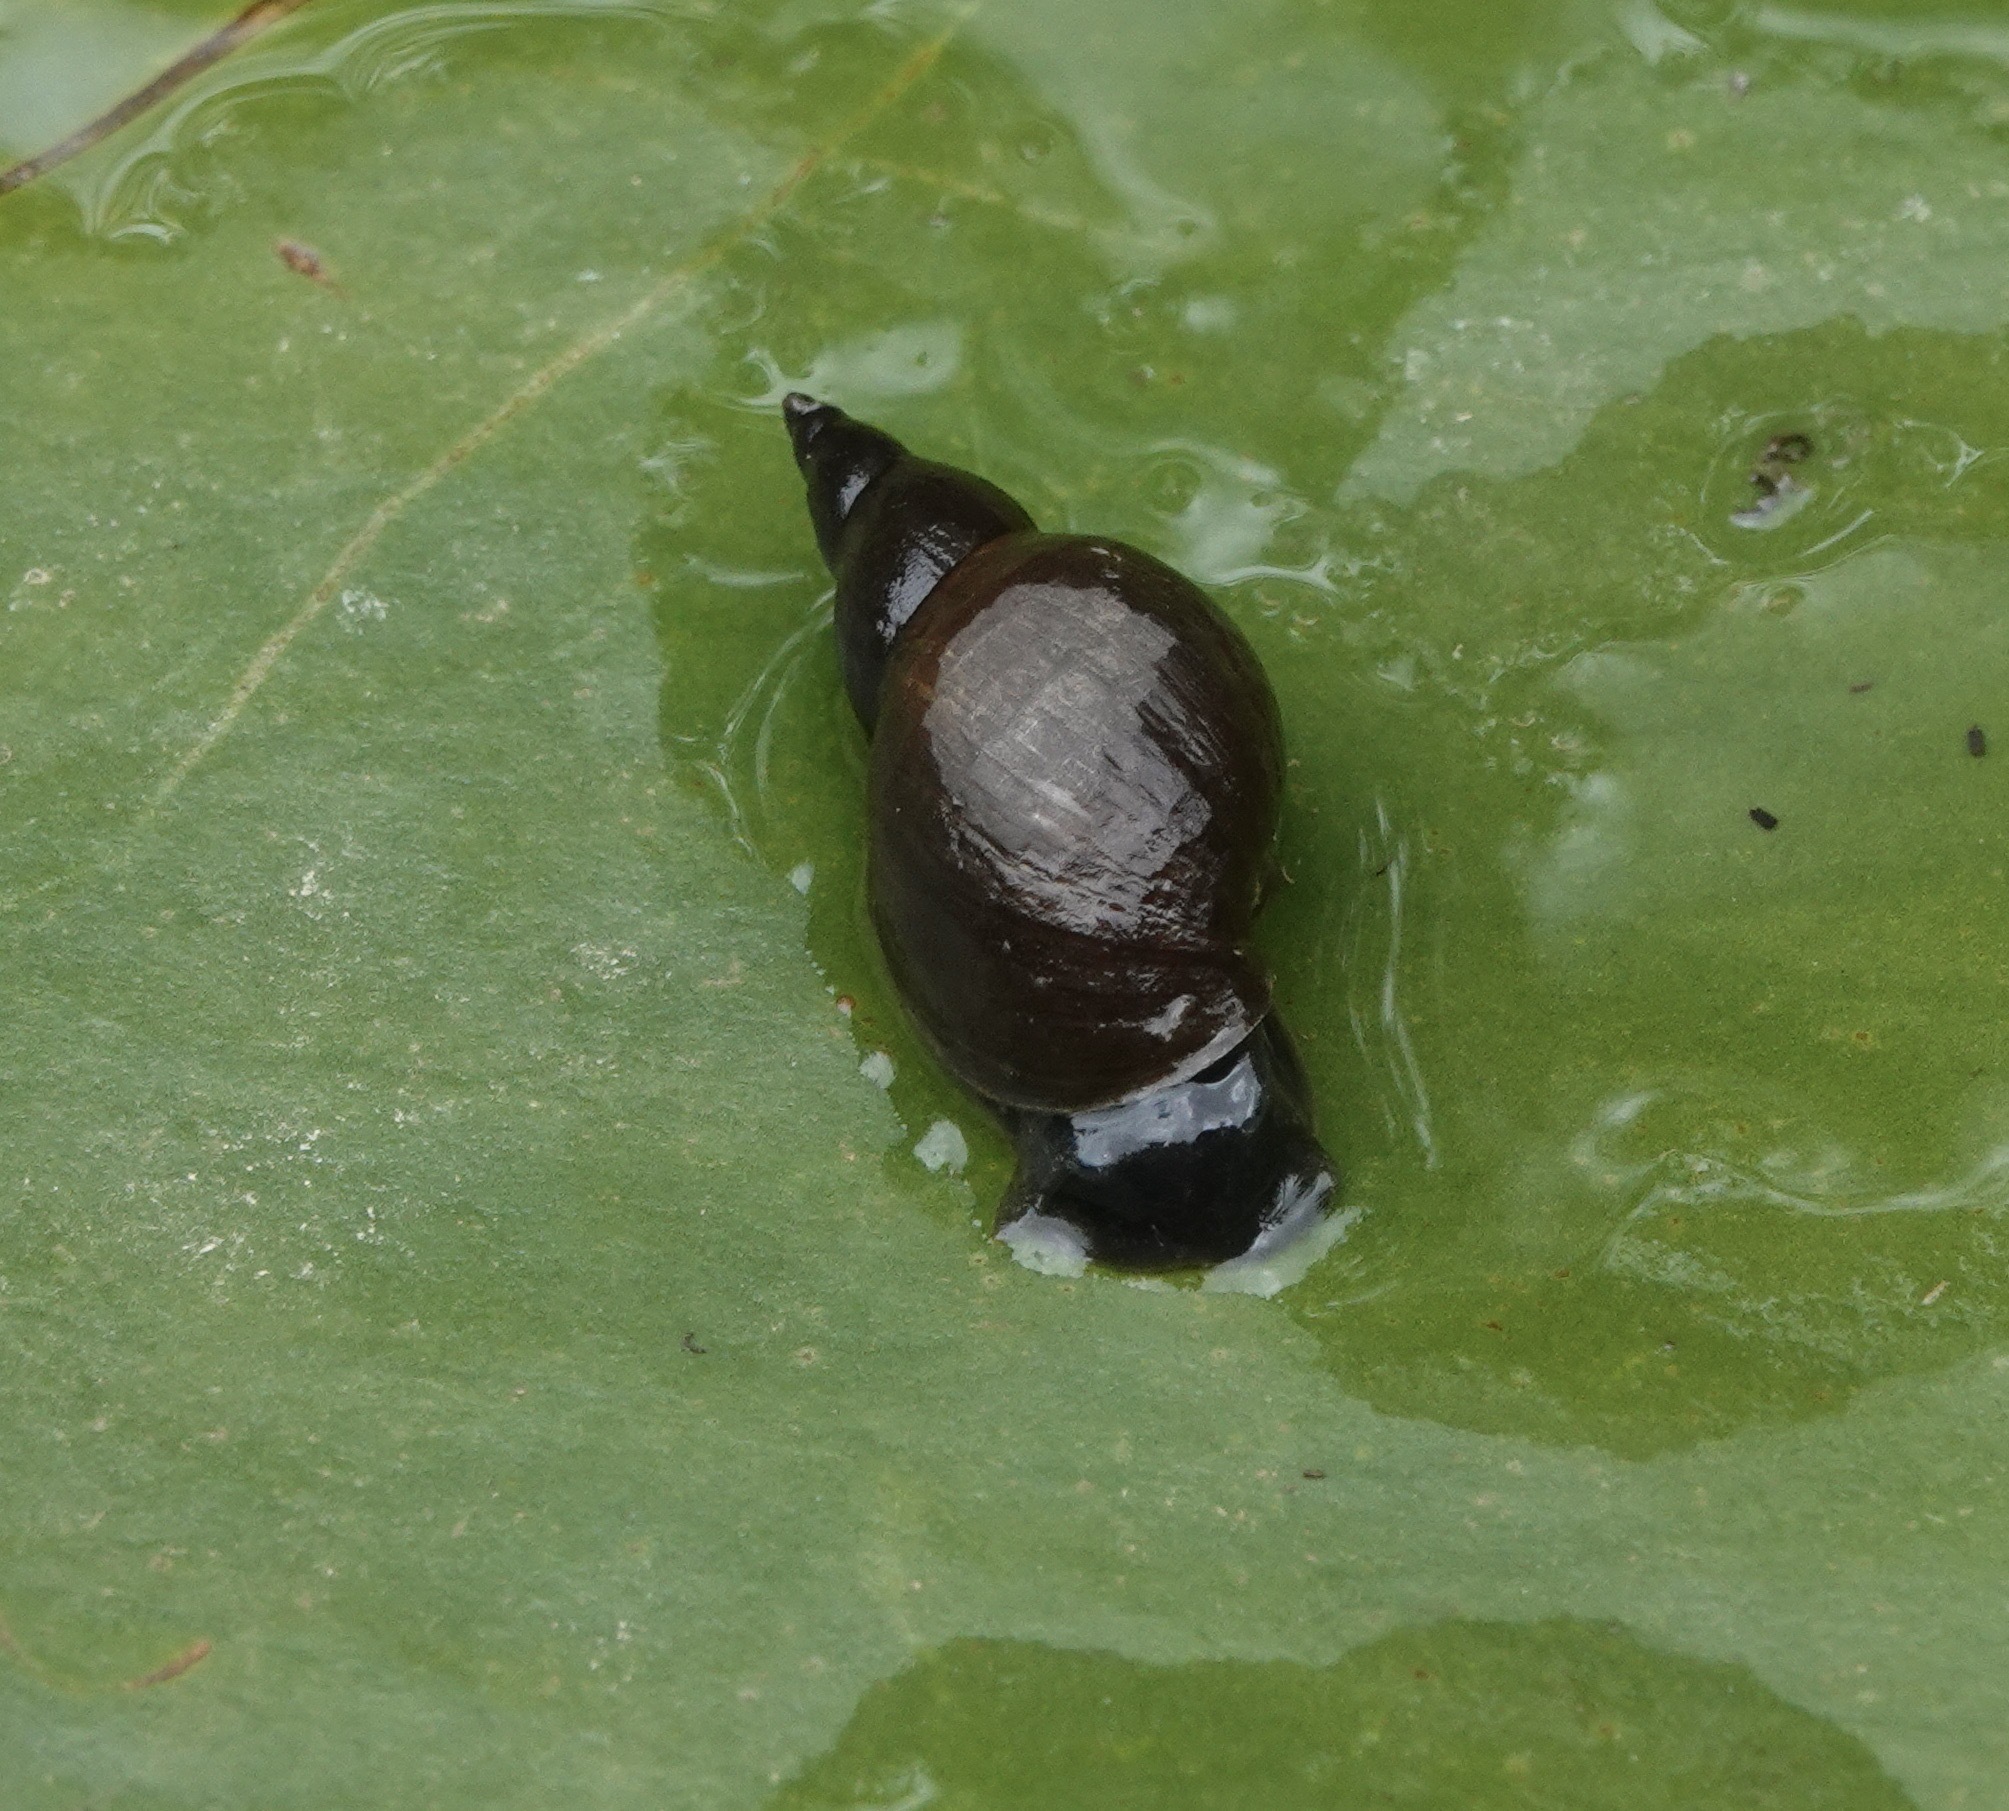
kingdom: Animalia
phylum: Mollusca
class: Gastropoda
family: Lymnaeidae
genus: Lymnaea
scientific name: Lymnaea stagnalis
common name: Great pond snail
